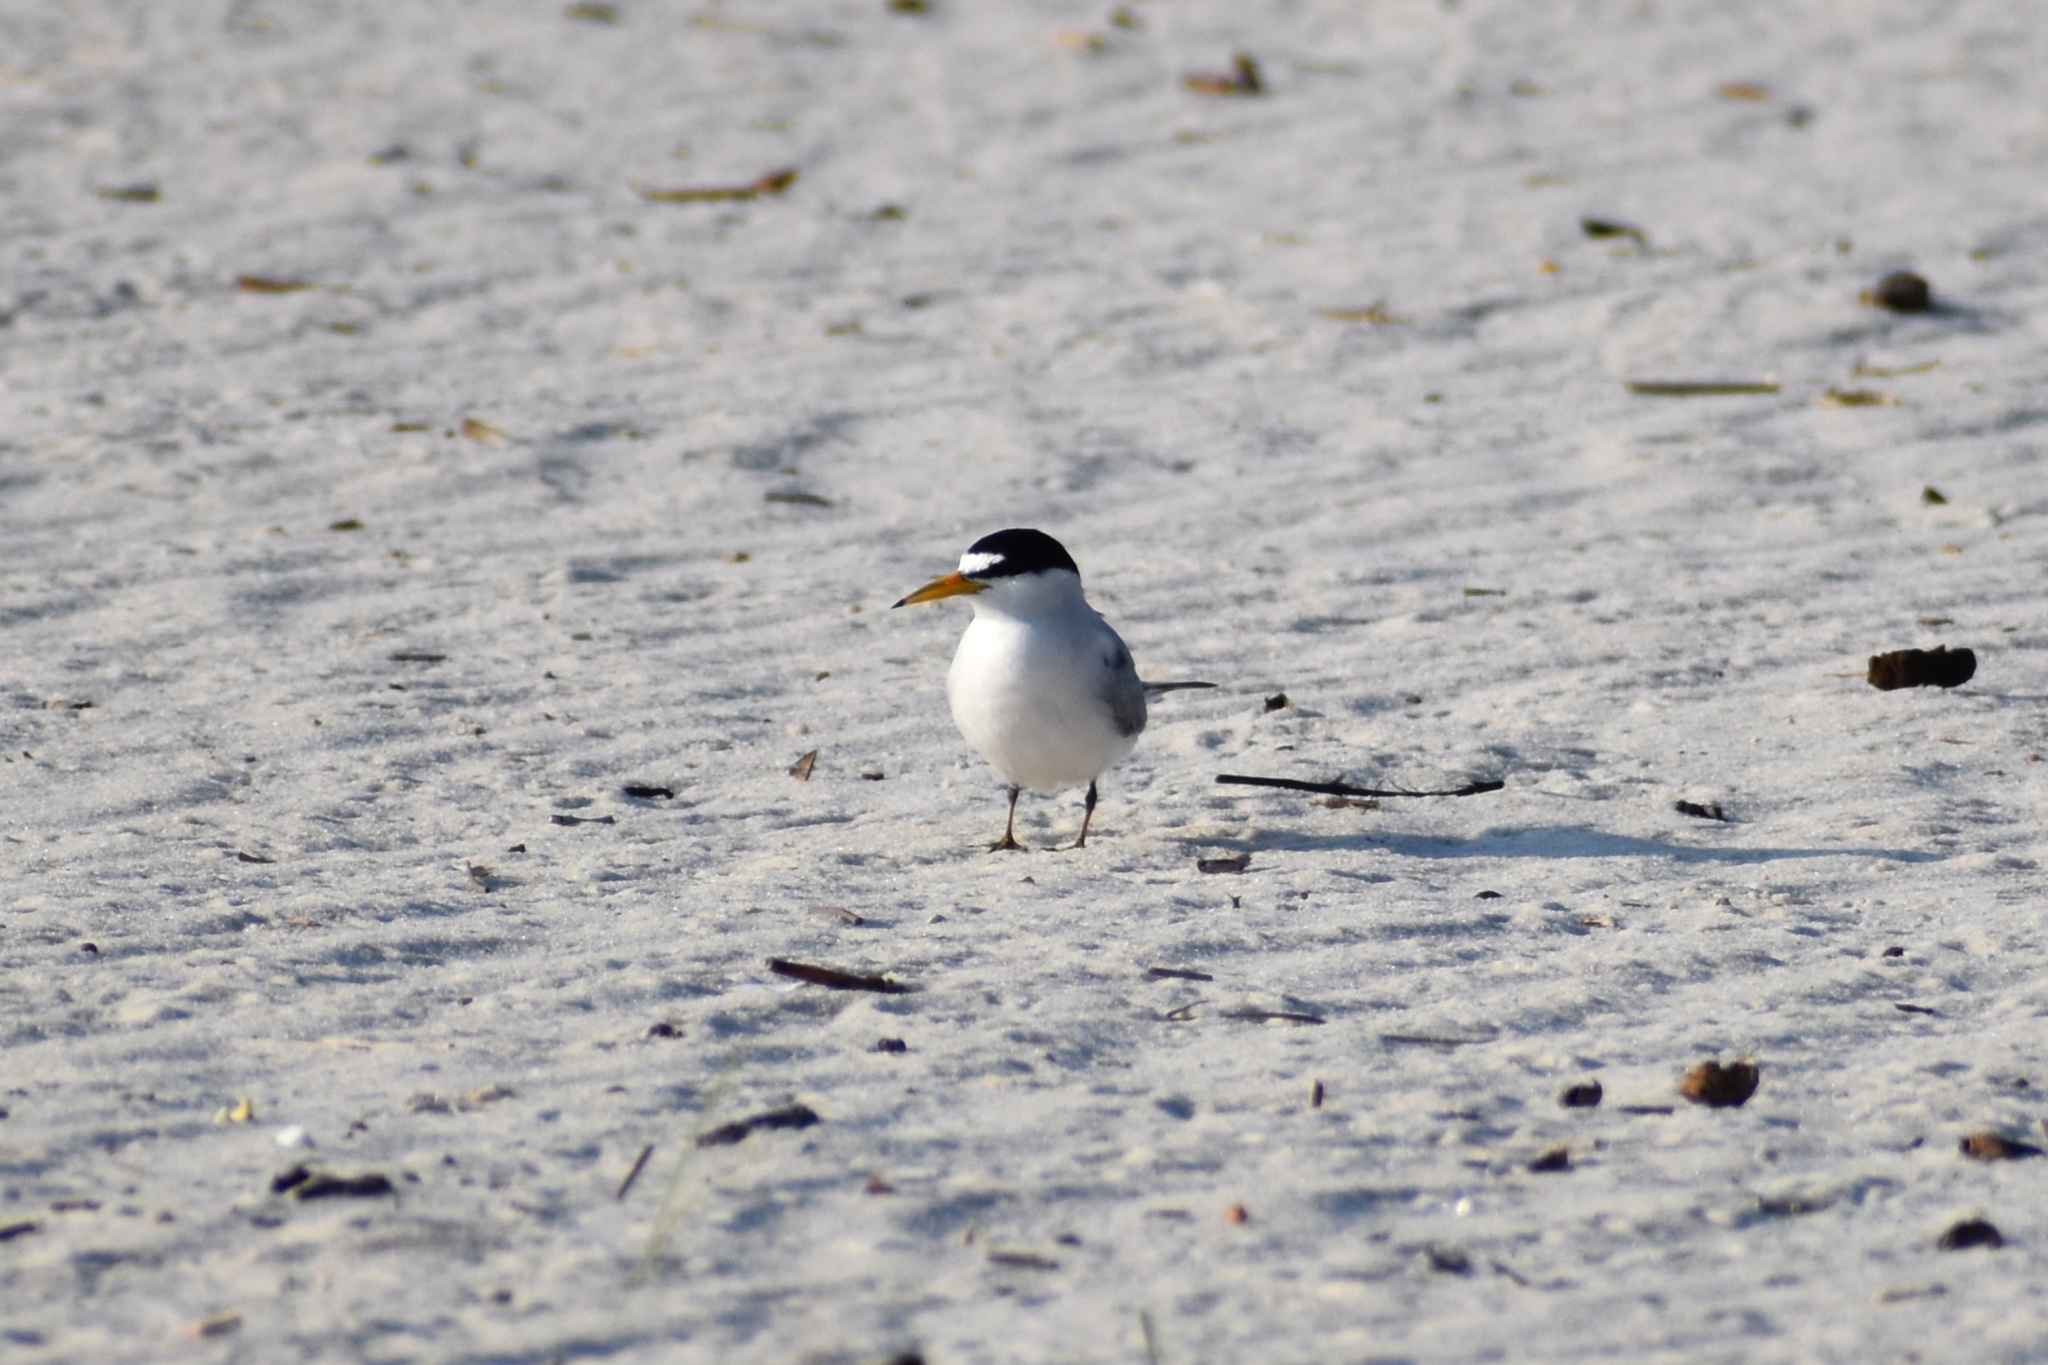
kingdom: Animalia
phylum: Chordata
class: Aves
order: Charadriiformes
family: Laridae
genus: Sternula
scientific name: Sternula antillarum
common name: Least tern
